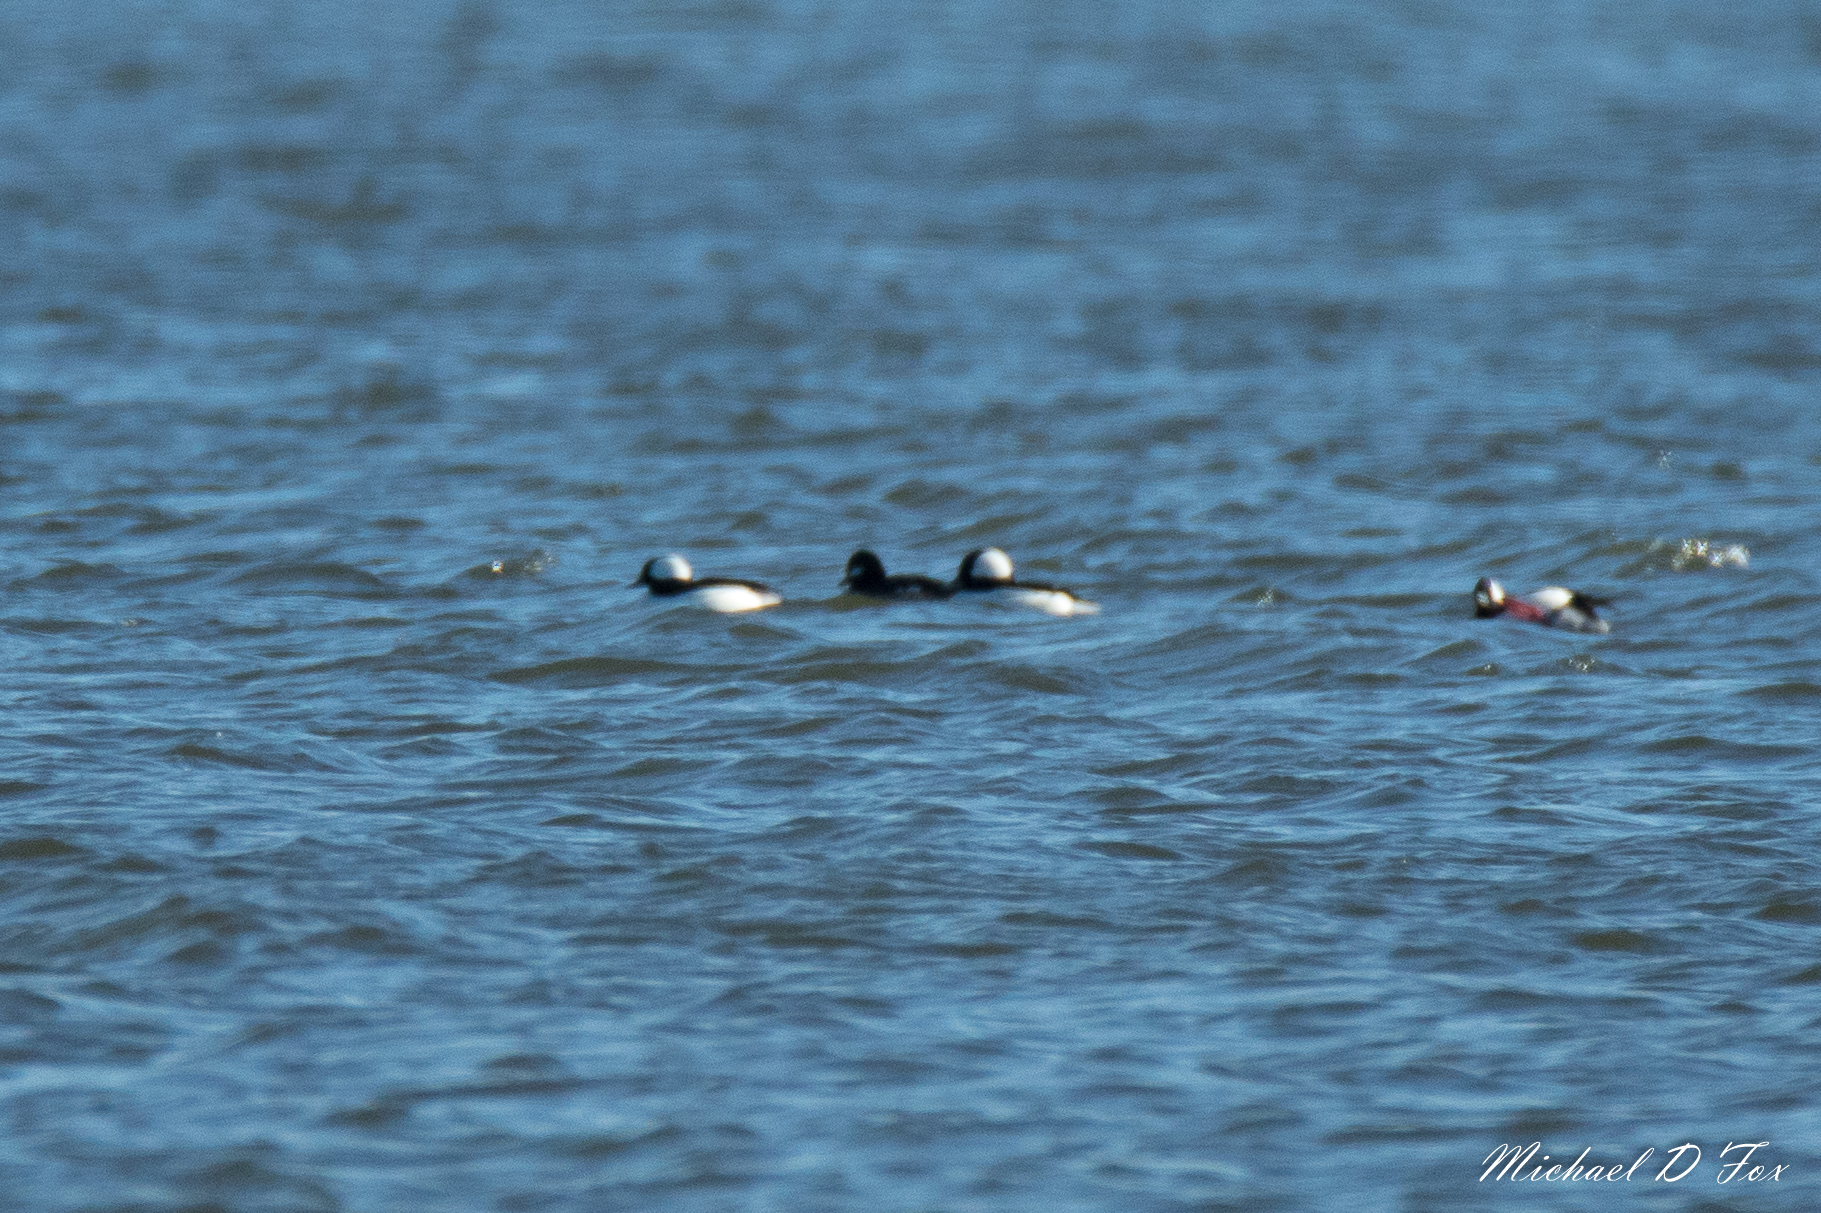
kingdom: Animalia
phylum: Chordata
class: Aves
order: Anseriformes
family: Anatidae
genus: Bucephala
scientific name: Bucephala albeola
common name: Bufflehead
